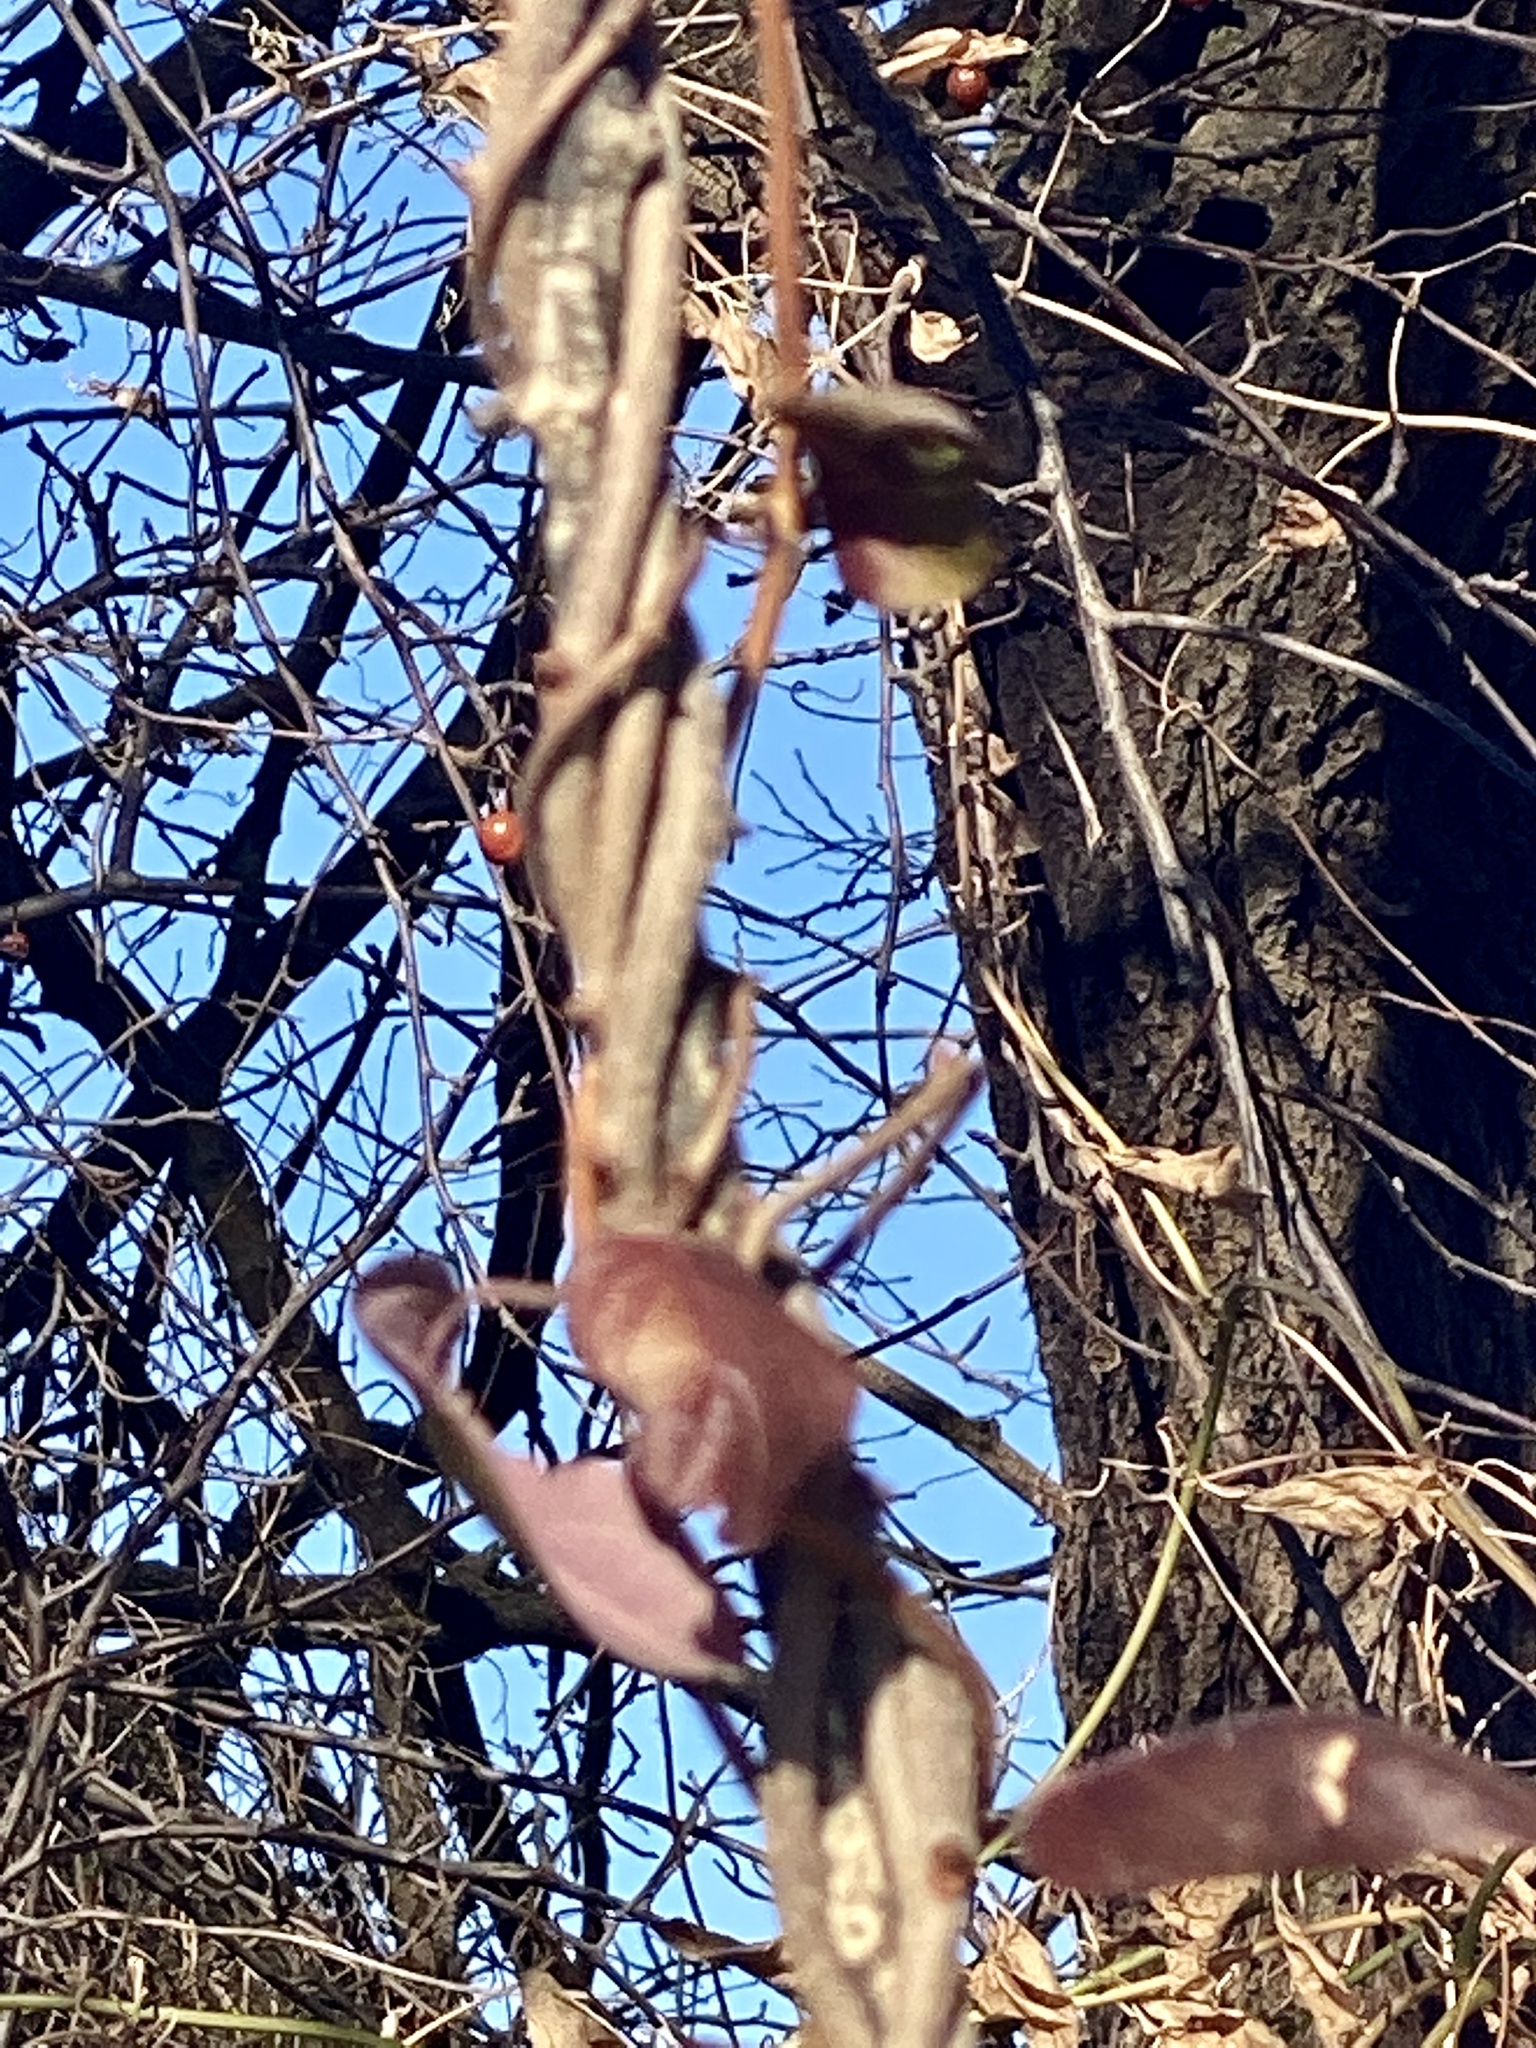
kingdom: Plantae
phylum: Tracheophyta
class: Magnoliopsida
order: Dipsacales
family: Caprifoliaceae
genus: Lonicera
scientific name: Lonicera japonica
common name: Japanese honeysuckle
